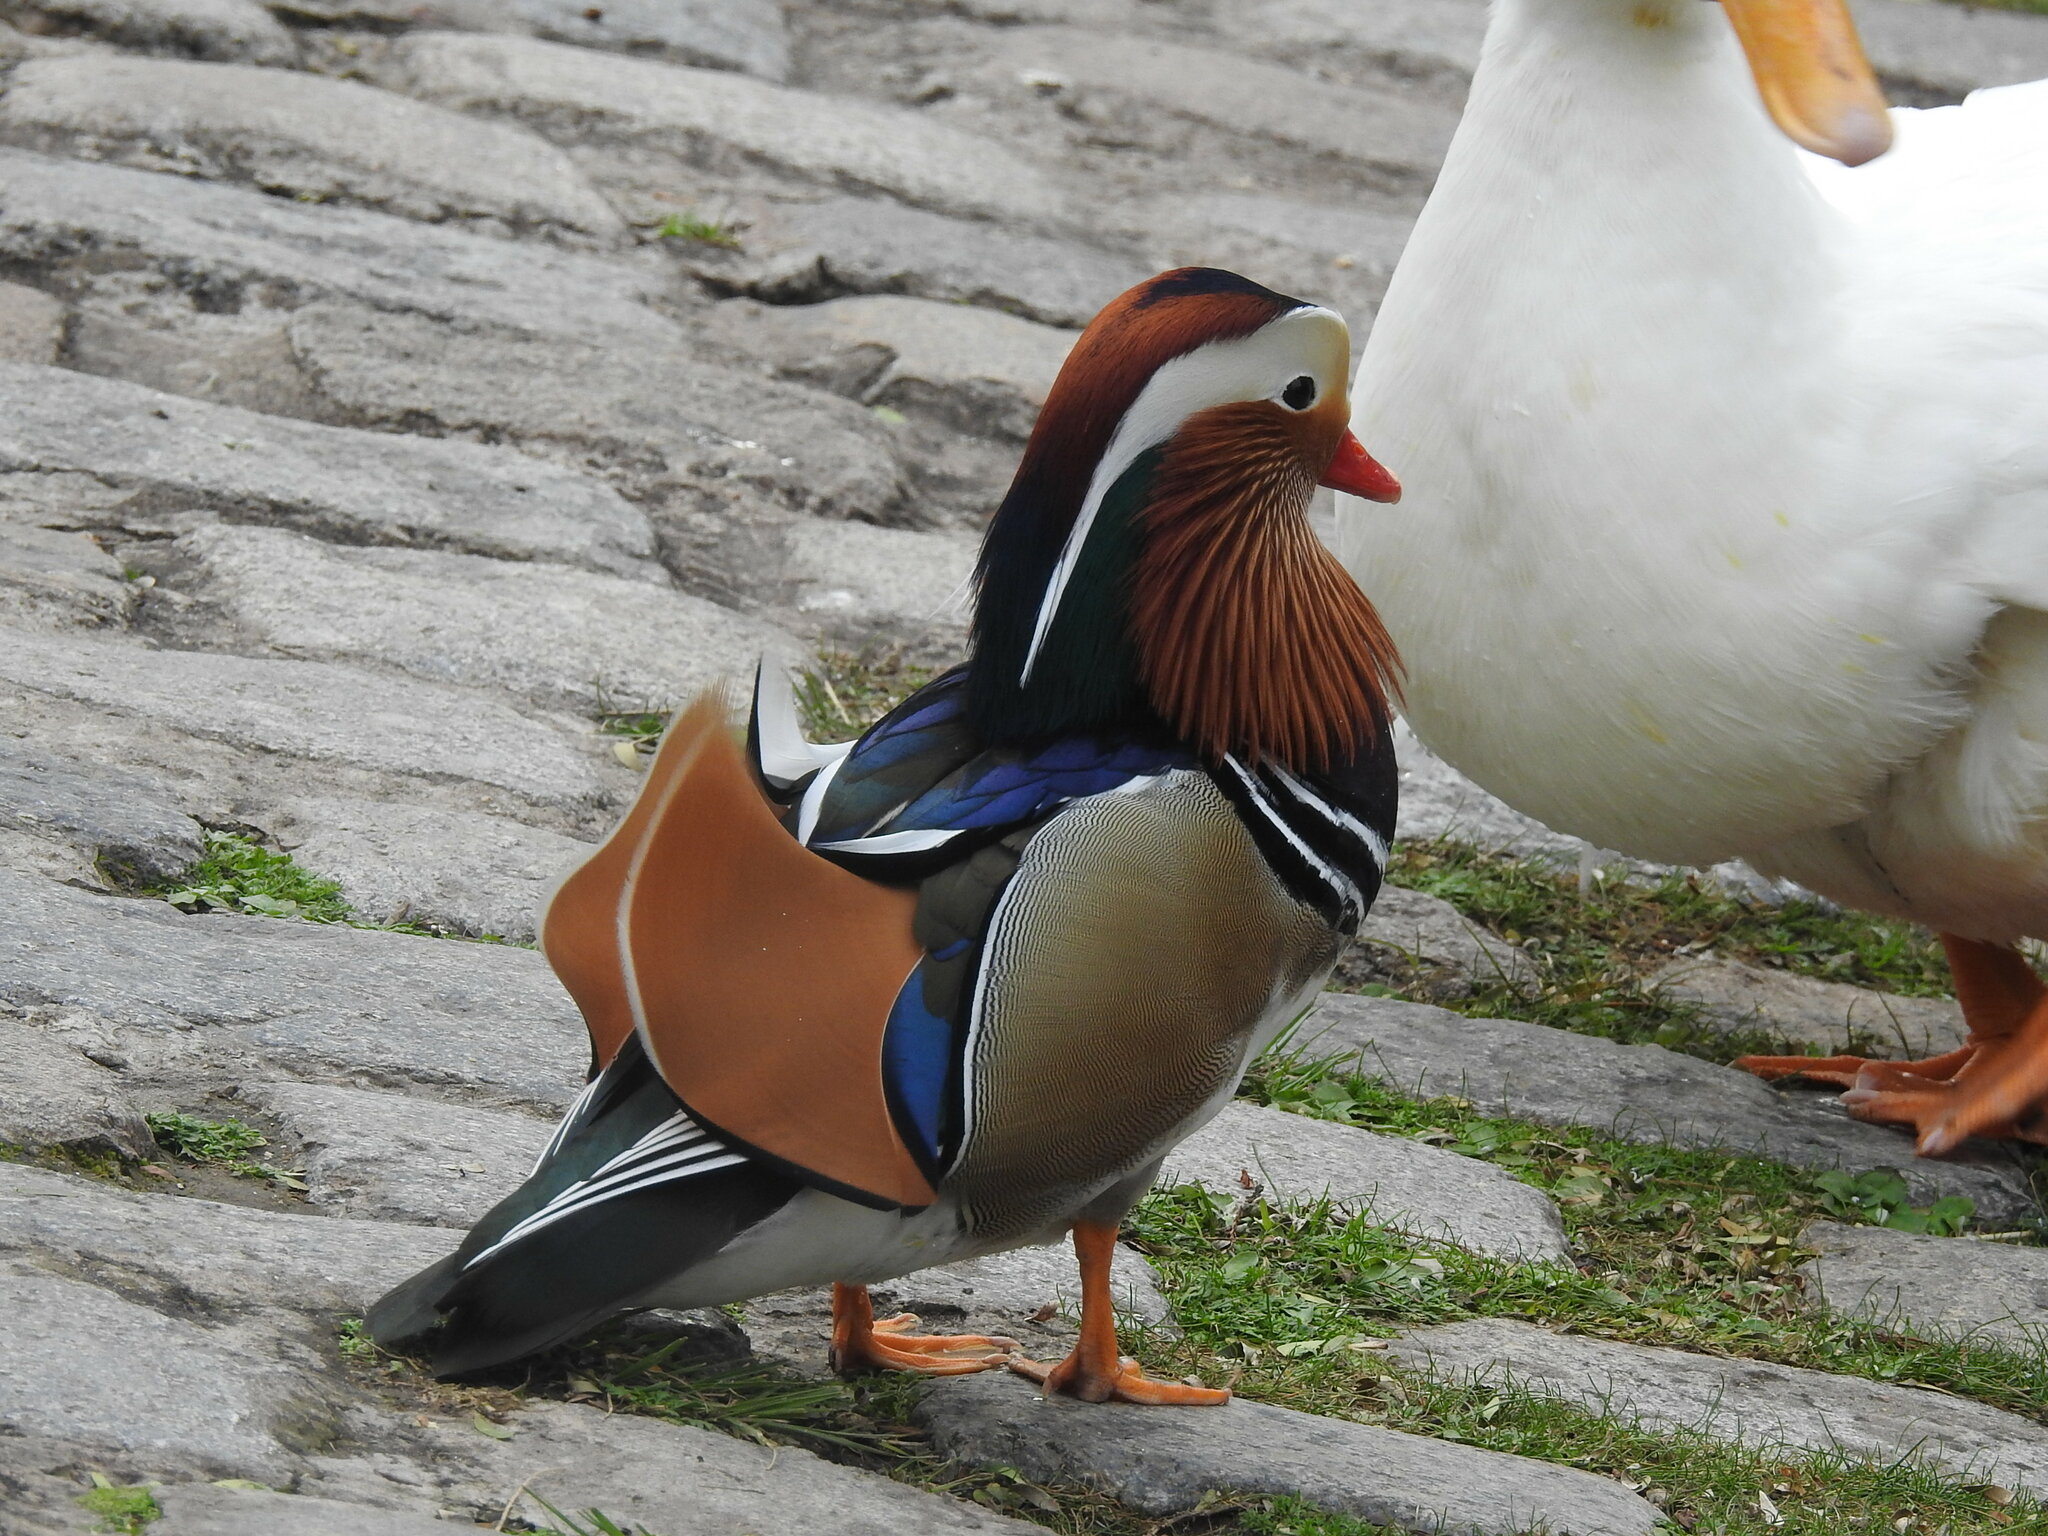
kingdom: Animalia
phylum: Chordata
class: Aves
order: Anseriformes
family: Anatidae
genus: Aix
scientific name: Aix galericulata
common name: Mandarin duck
